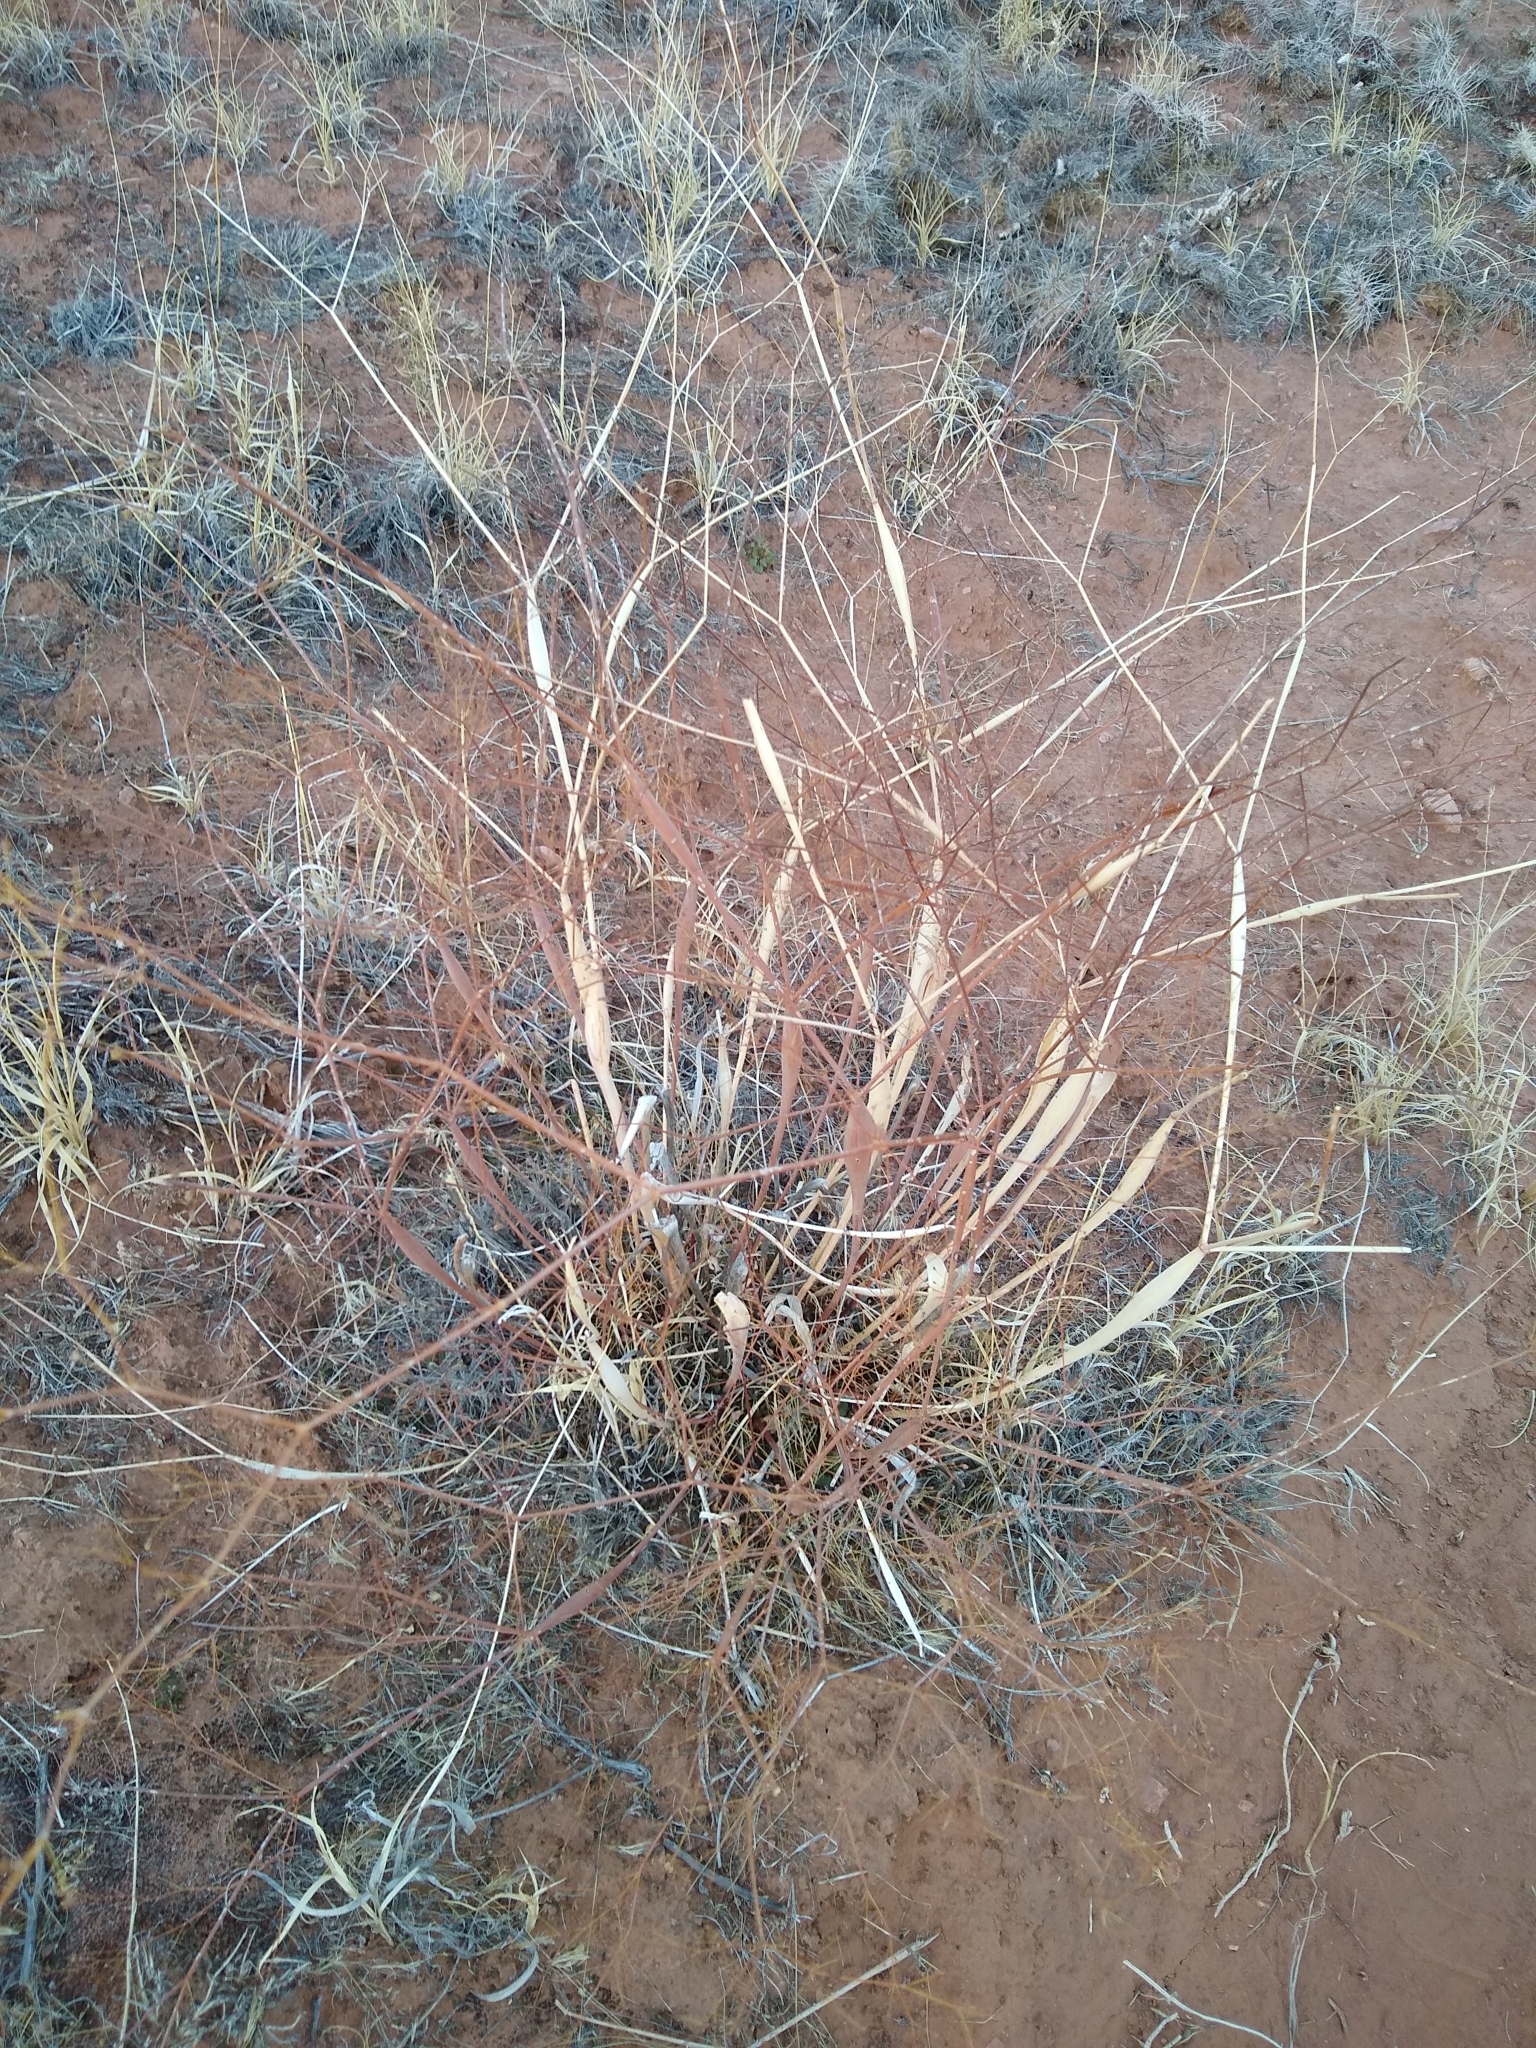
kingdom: Plantae
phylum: Tracheophyta
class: Magnoliopsida
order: Caryophyllales
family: Polygonaceae
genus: Eriogonum
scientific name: Eriogonum inflatum
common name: Desert trumpet
